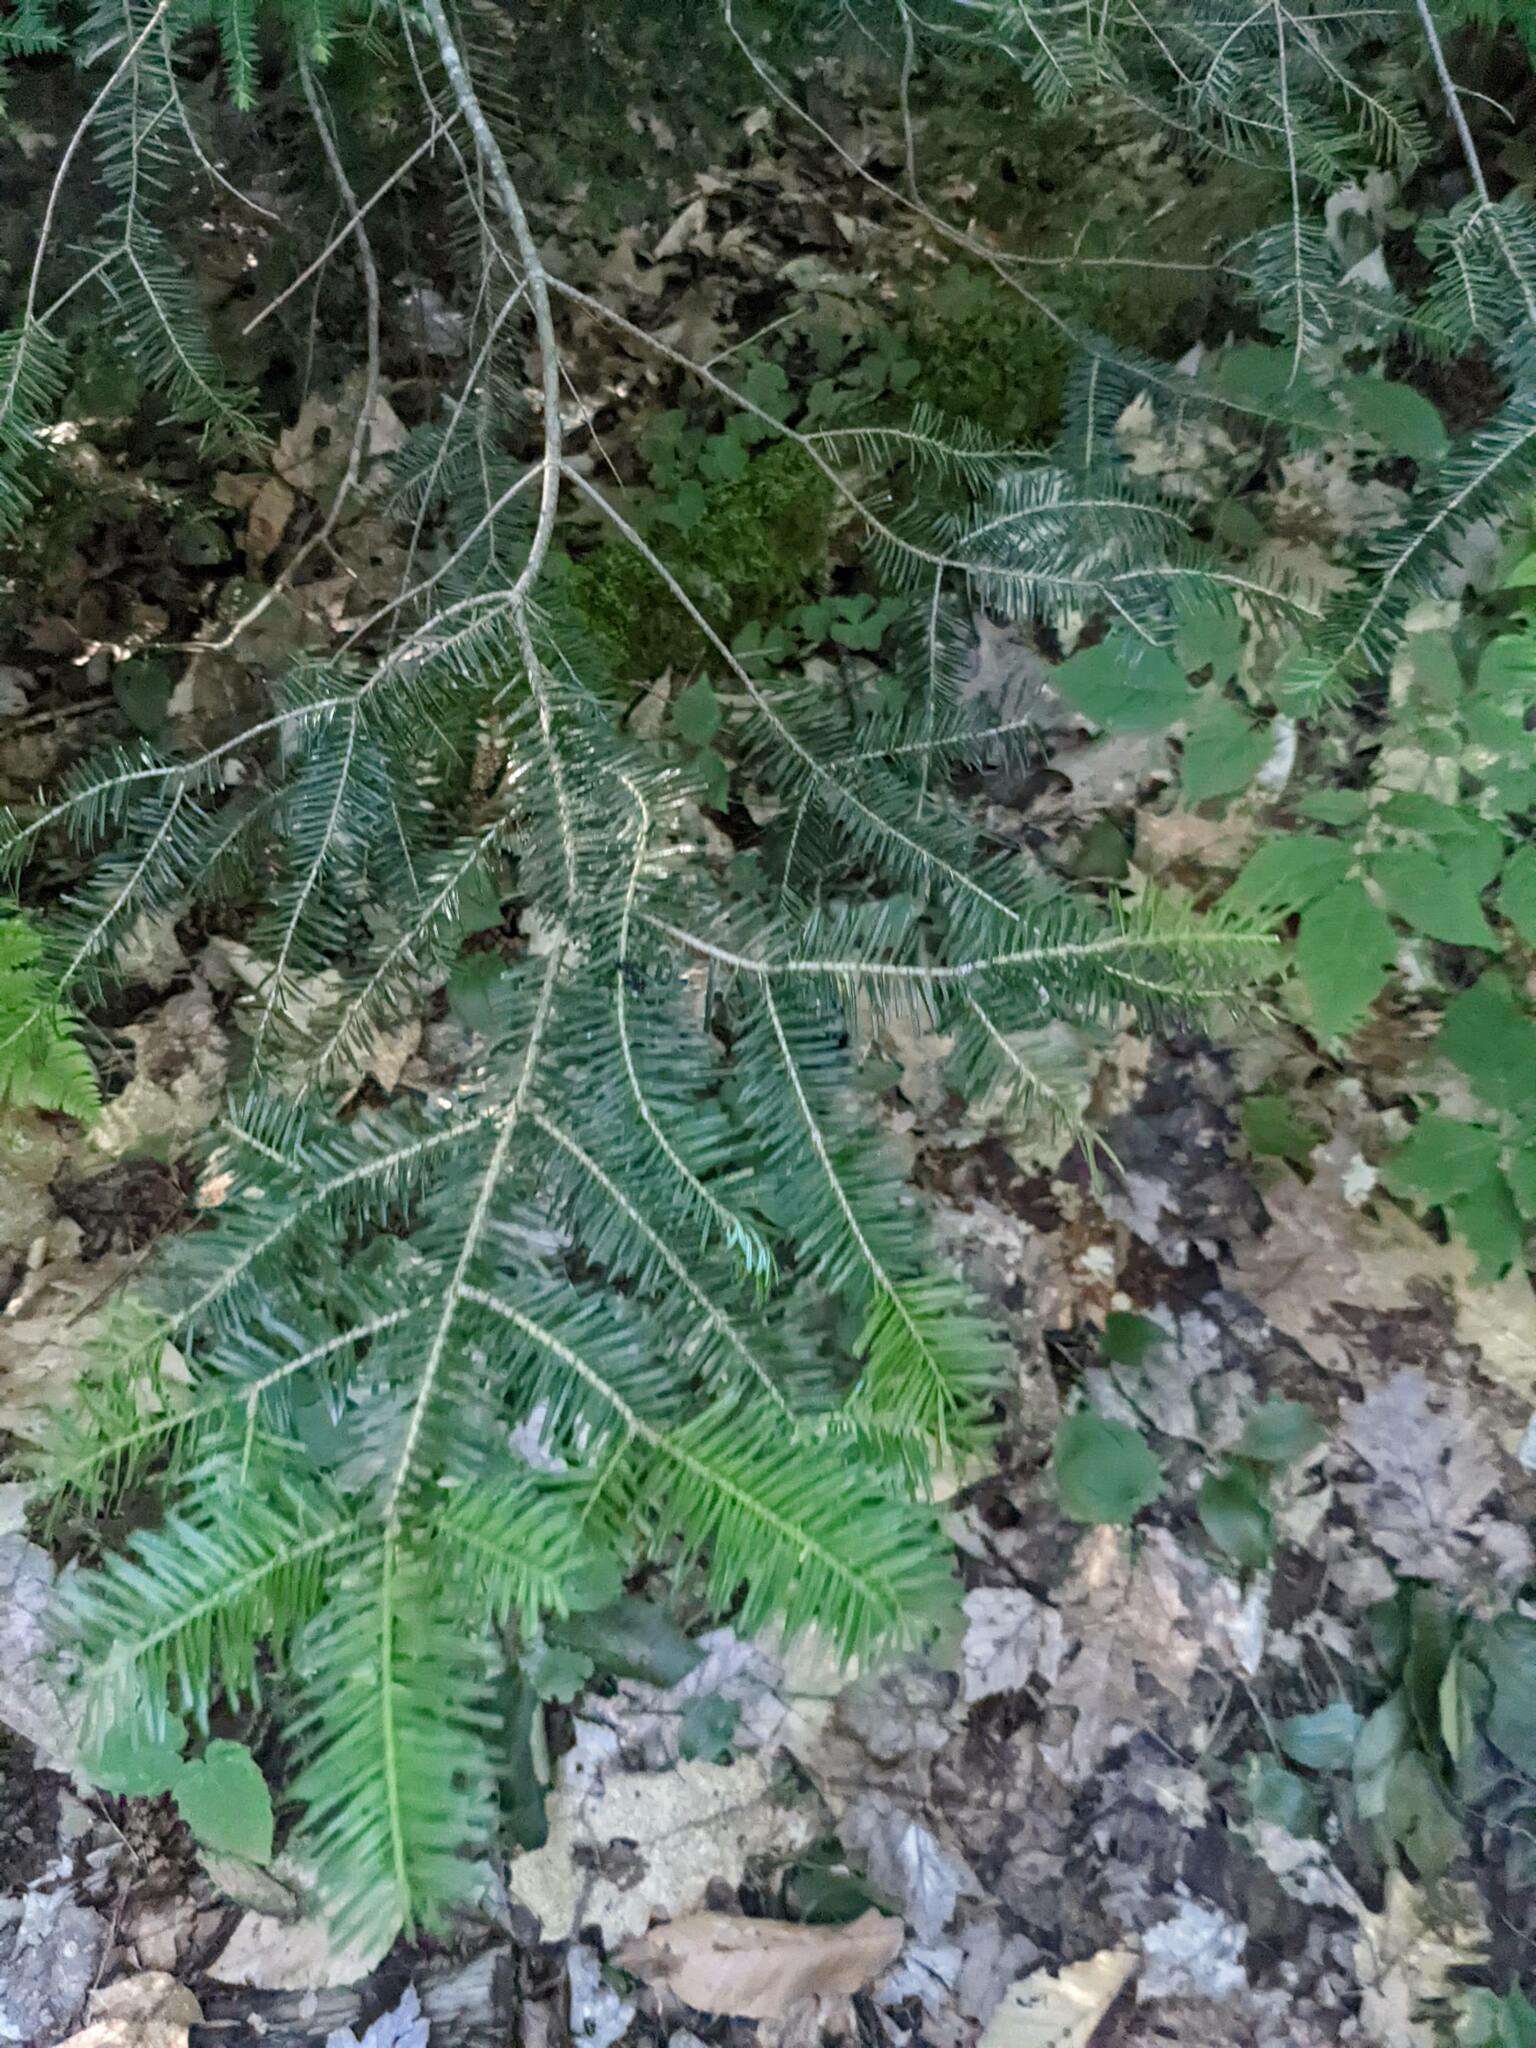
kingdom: Plantae
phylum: Tracheophyta
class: Pinopsida
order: Pinales
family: Pinaceae
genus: Abies
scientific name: Abies balsamea
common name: Balsam fir
